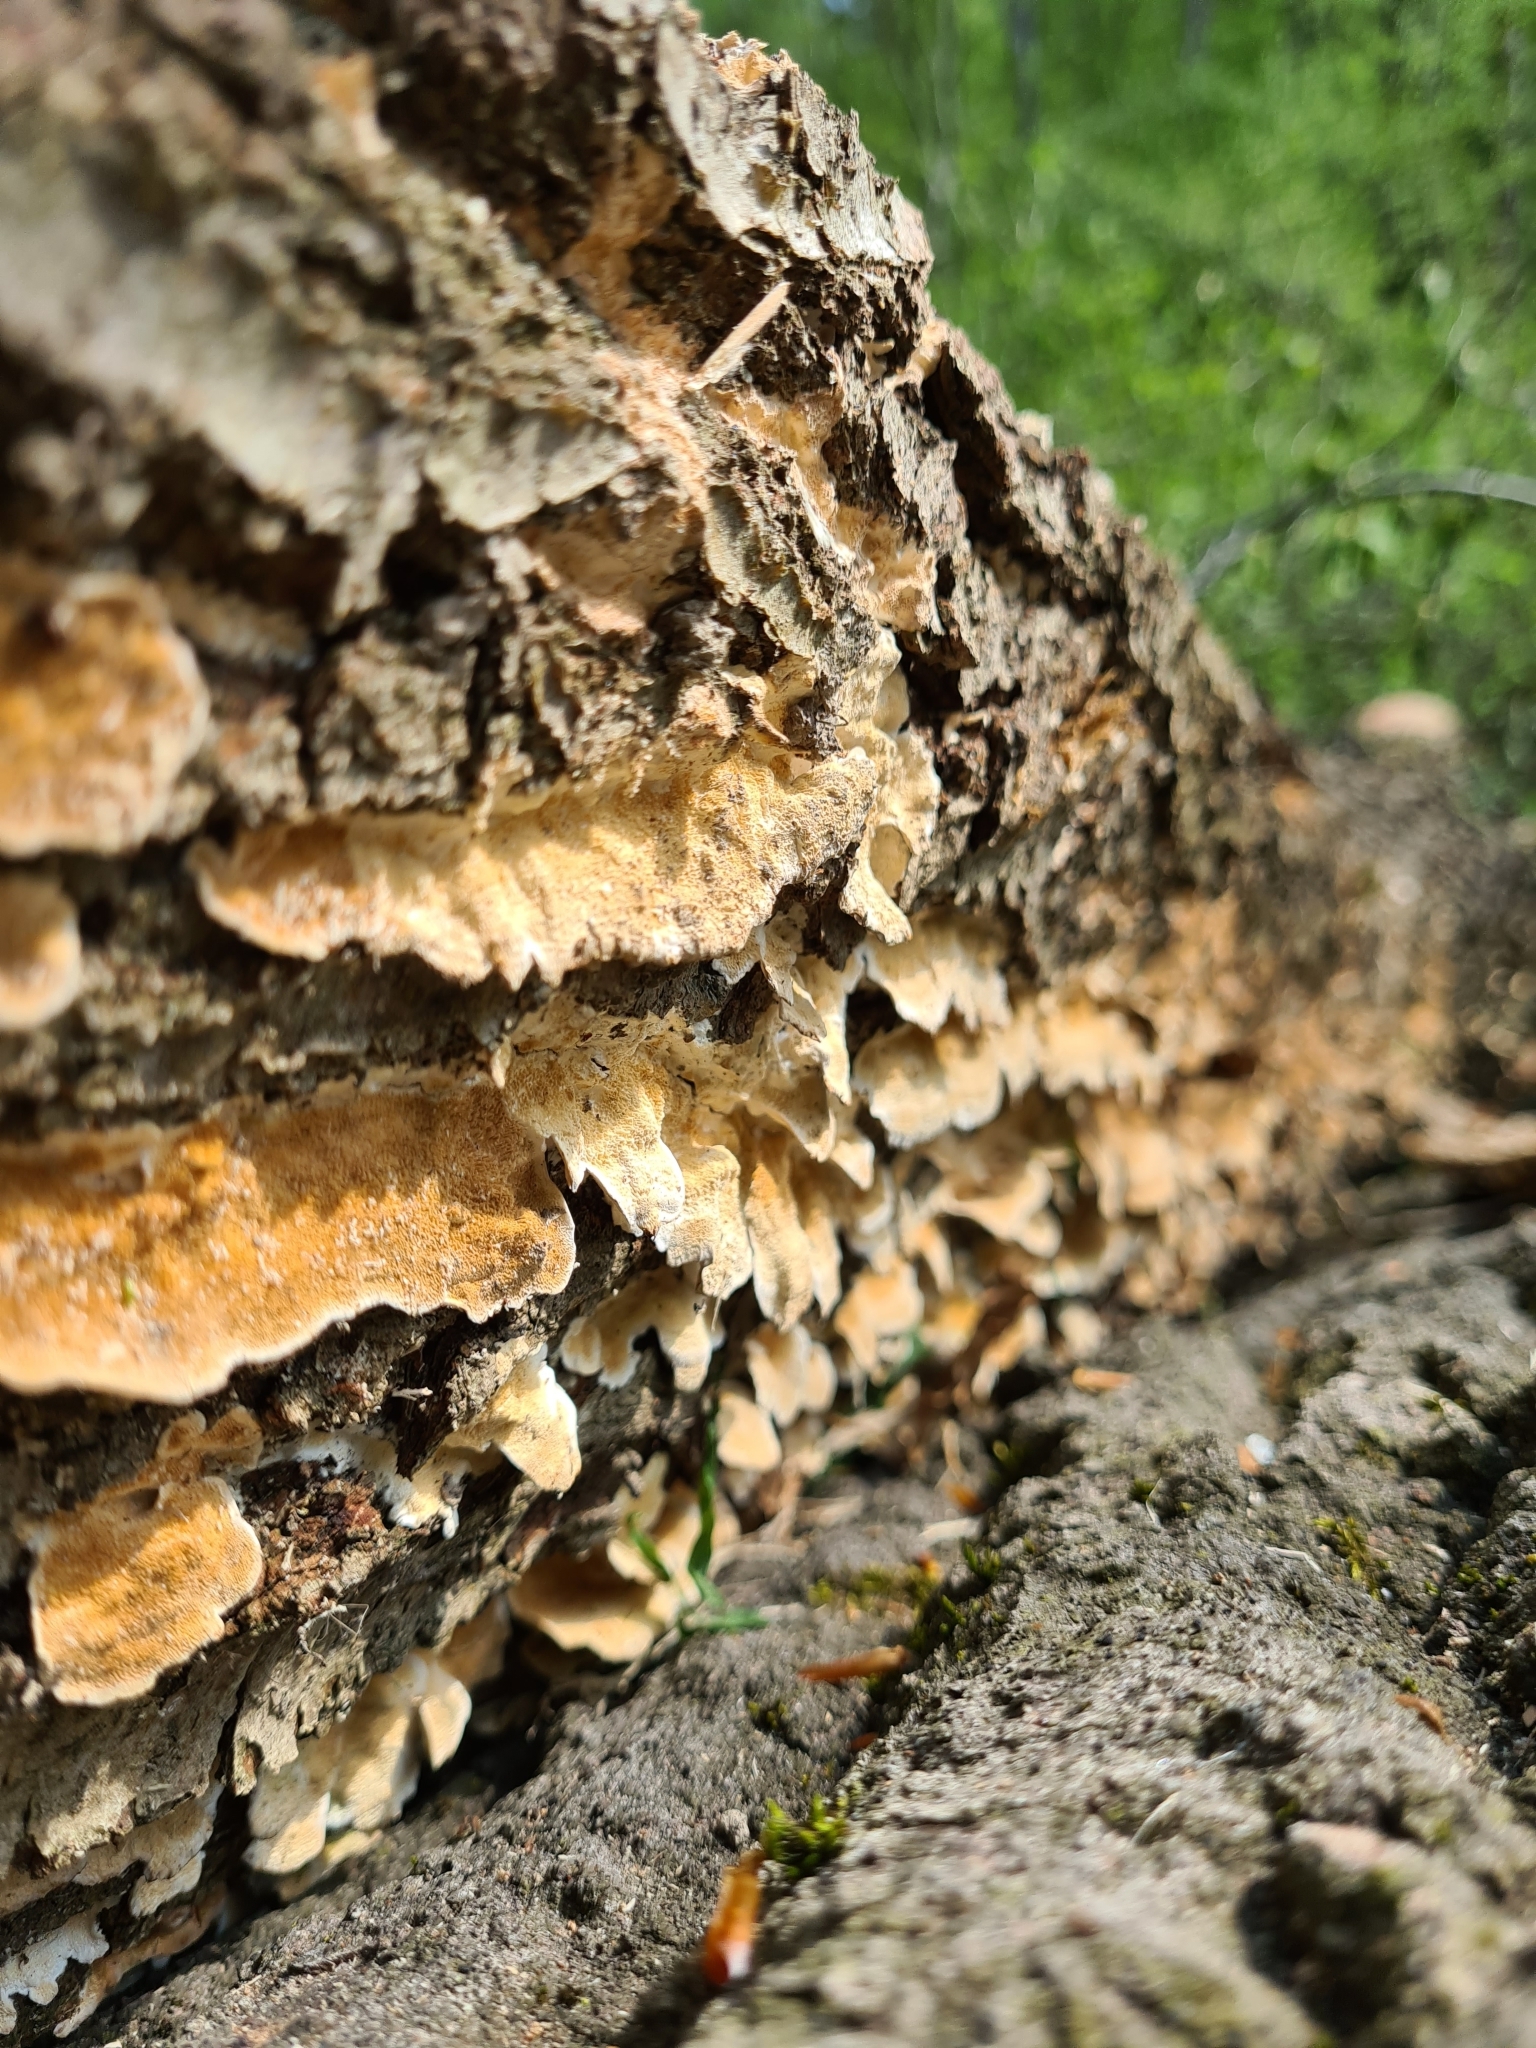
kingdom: Fungi
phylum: Basidiomycota
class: Agaricomycetes
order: Hymenochaetales
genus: Trichaptum
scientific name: Trichaptum biforme
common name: Violet-toothed polypore
